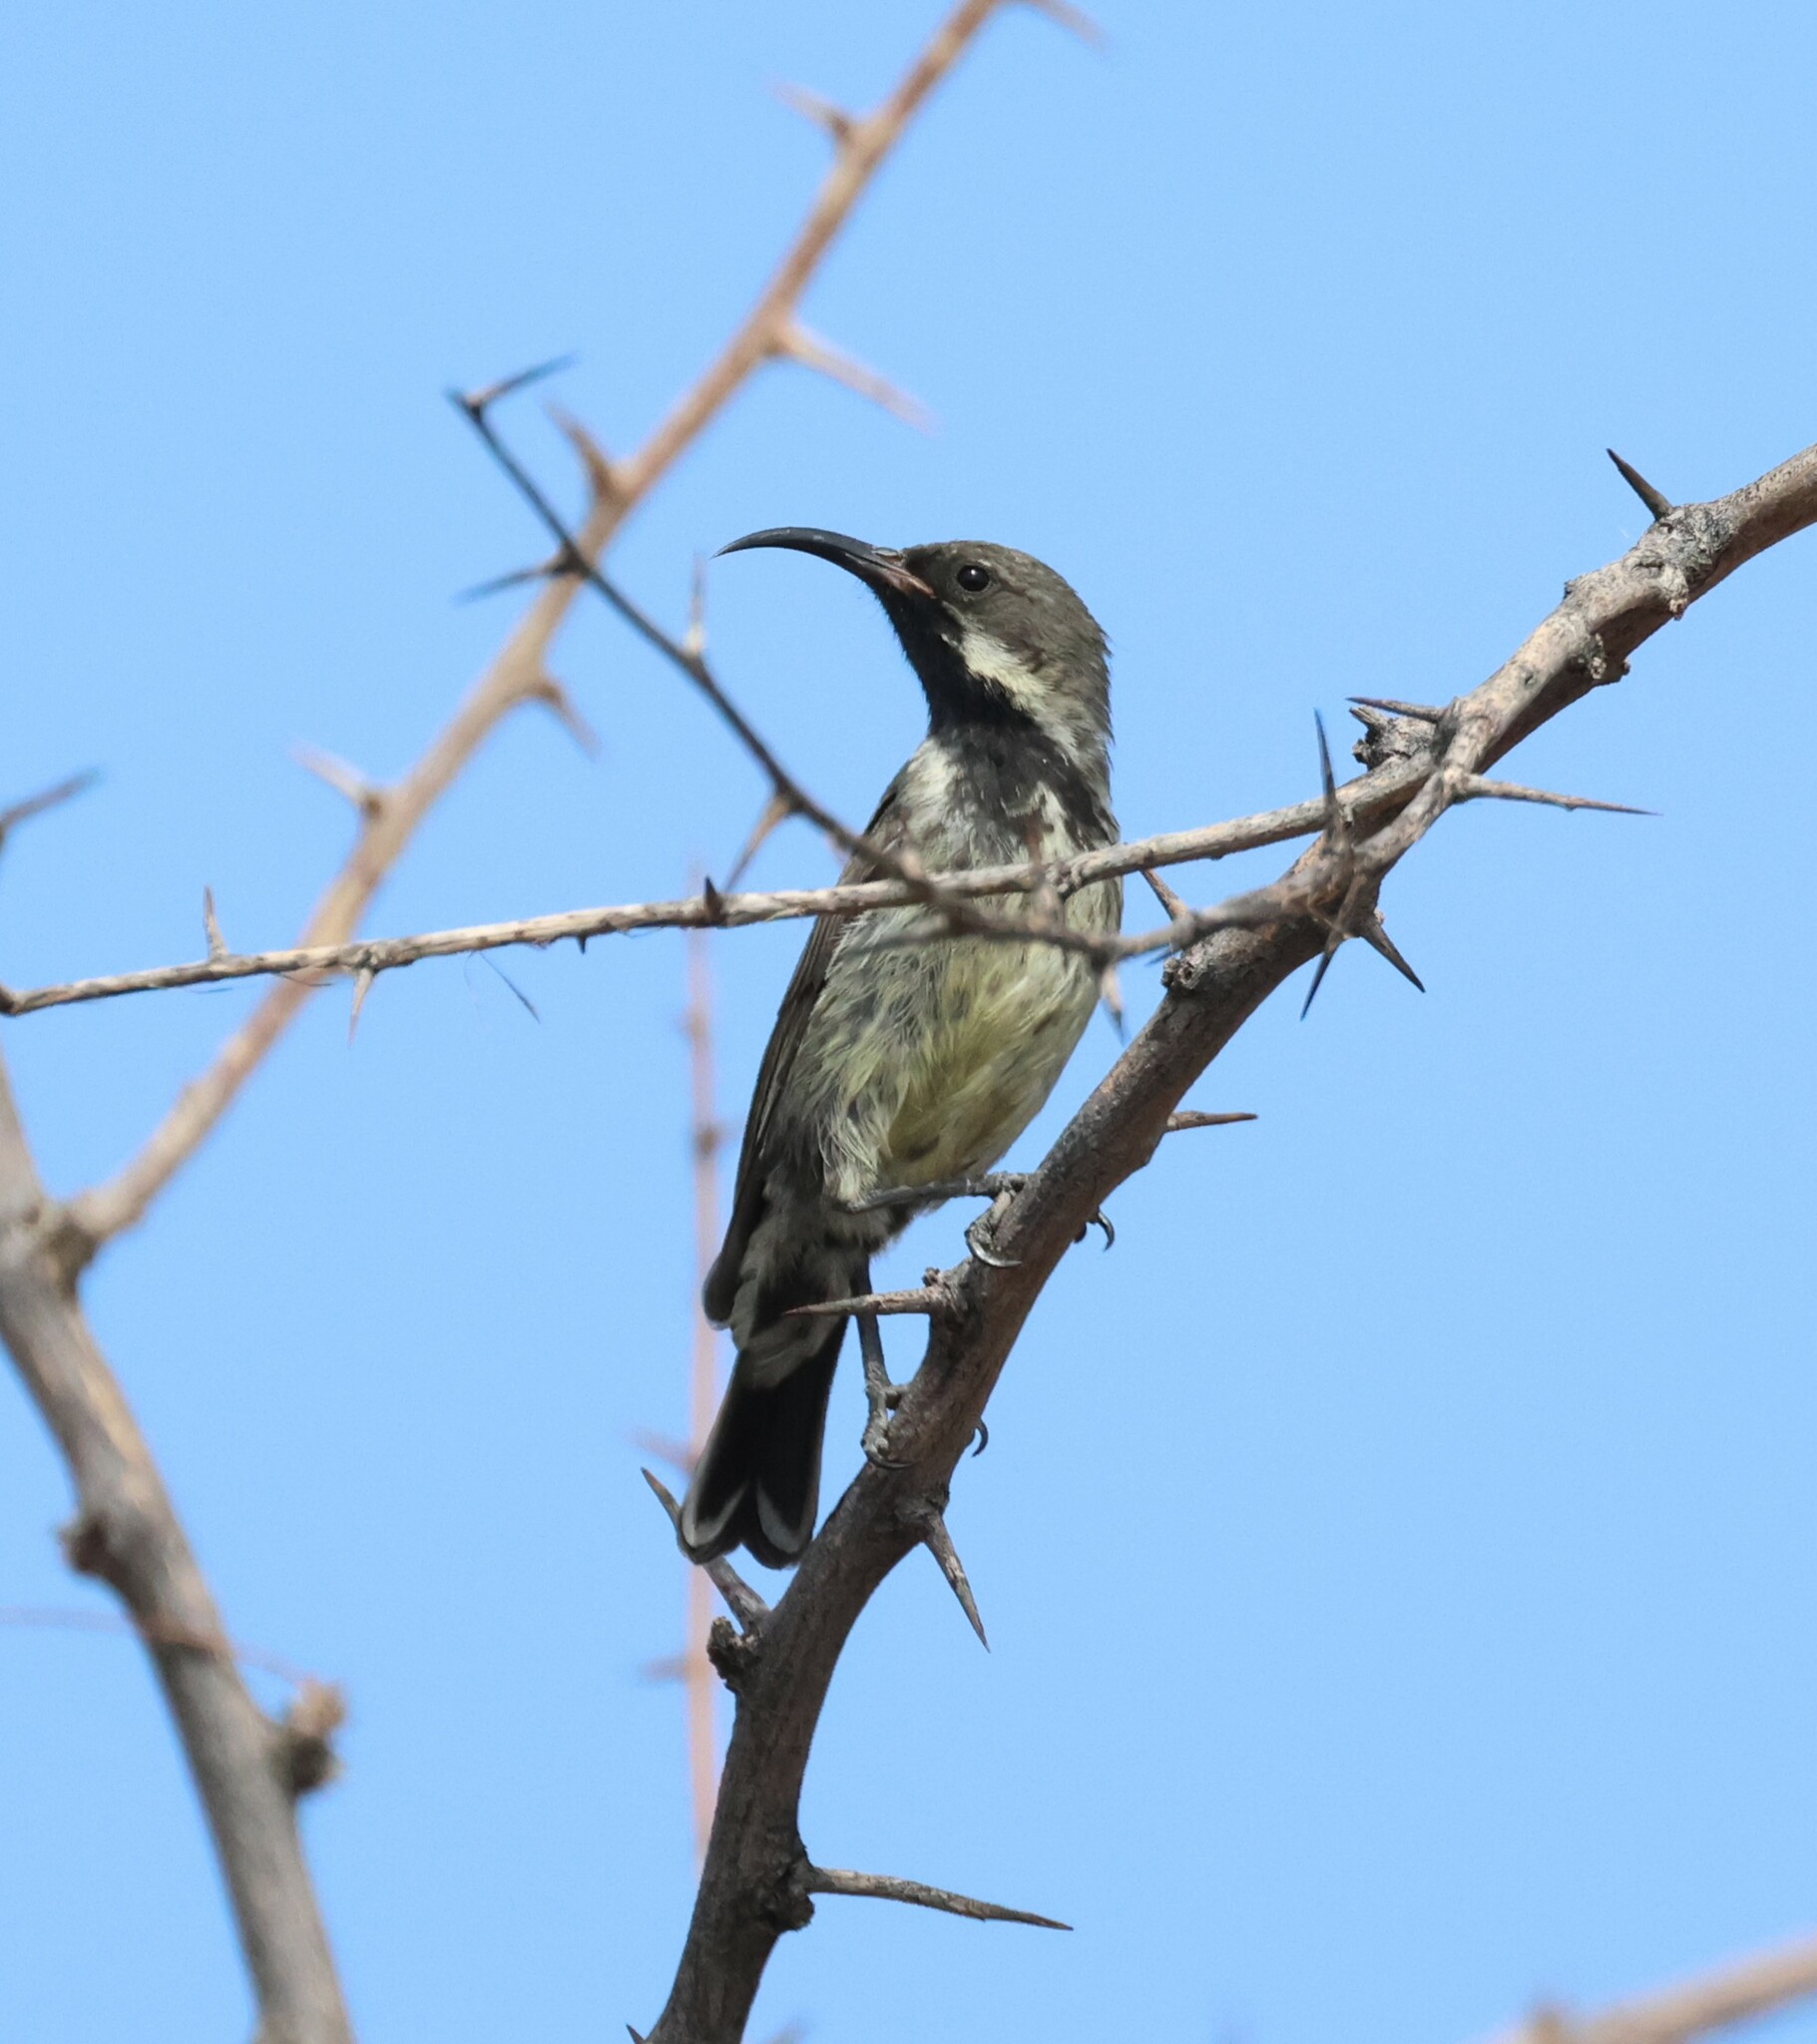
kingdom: Animalia
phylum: Chordata
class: Aves
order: Passeriformes
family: Nectariniidae
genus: Cinnyris
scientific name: Cinnyris mariquensis
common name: Marico sunbird
